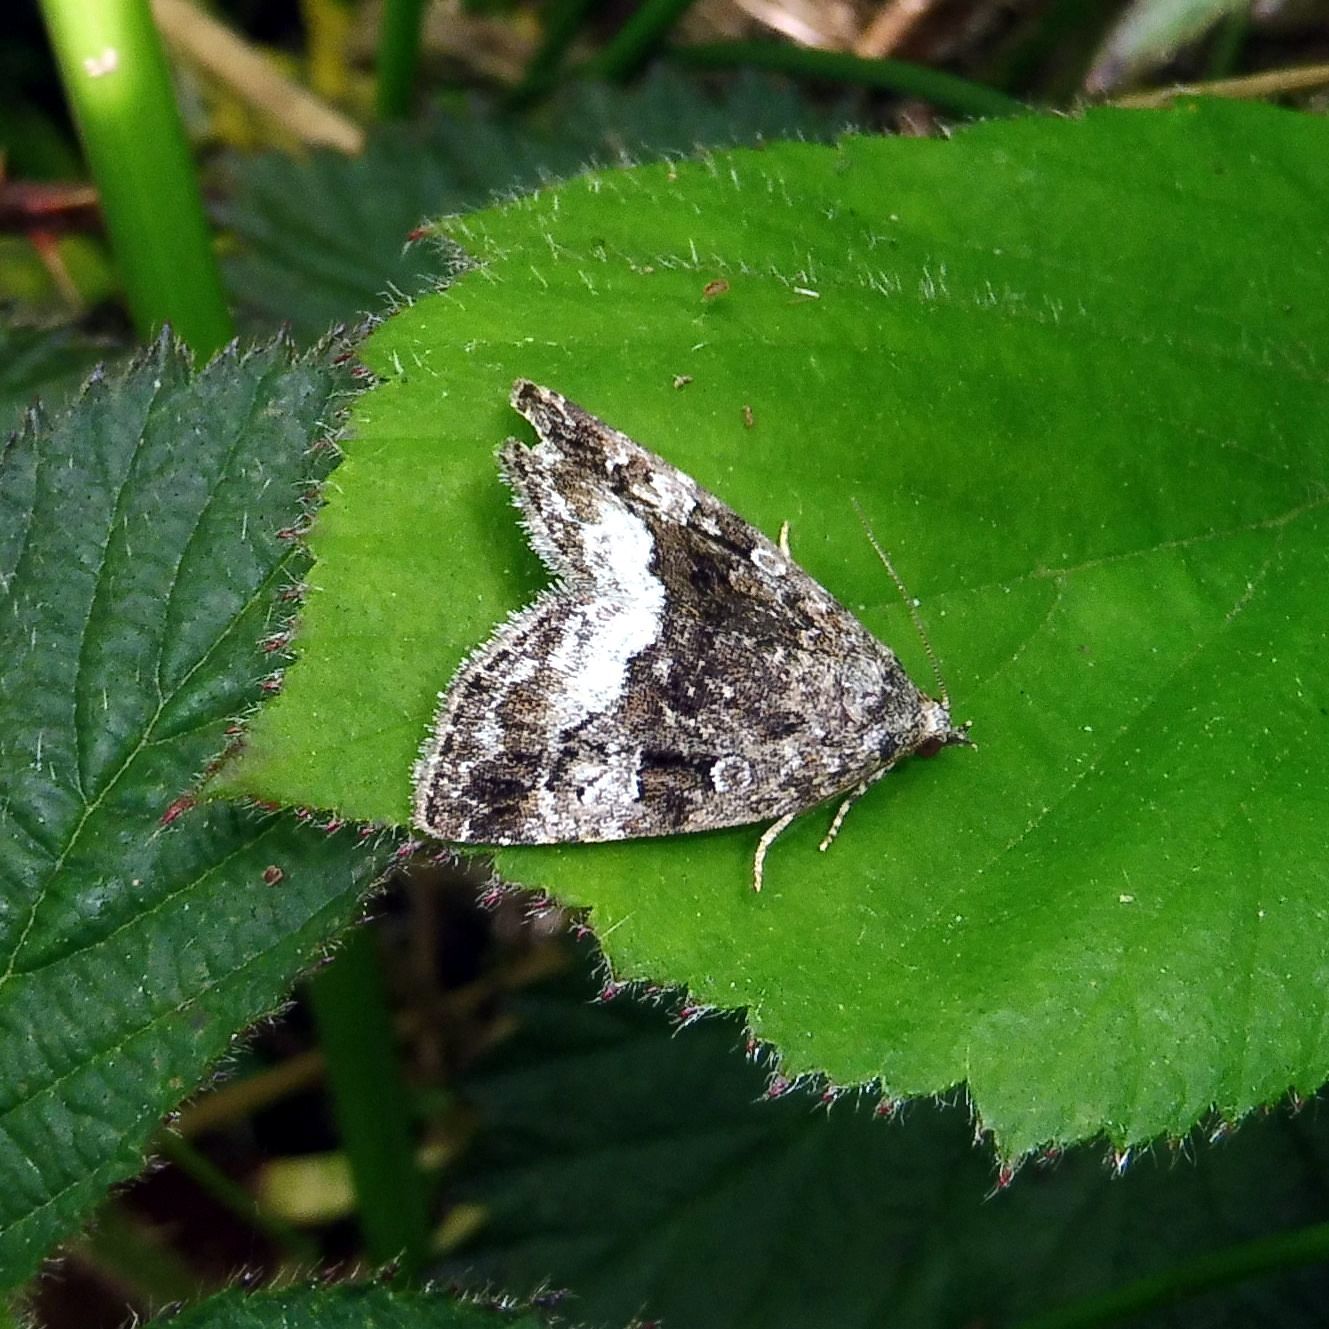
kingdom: Animalia
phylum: Arthropoda
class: Insecta
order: Lepidoptera
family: Noctuidae
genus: Deltote
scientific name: Deltote pygarga
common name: Marbled white spot
